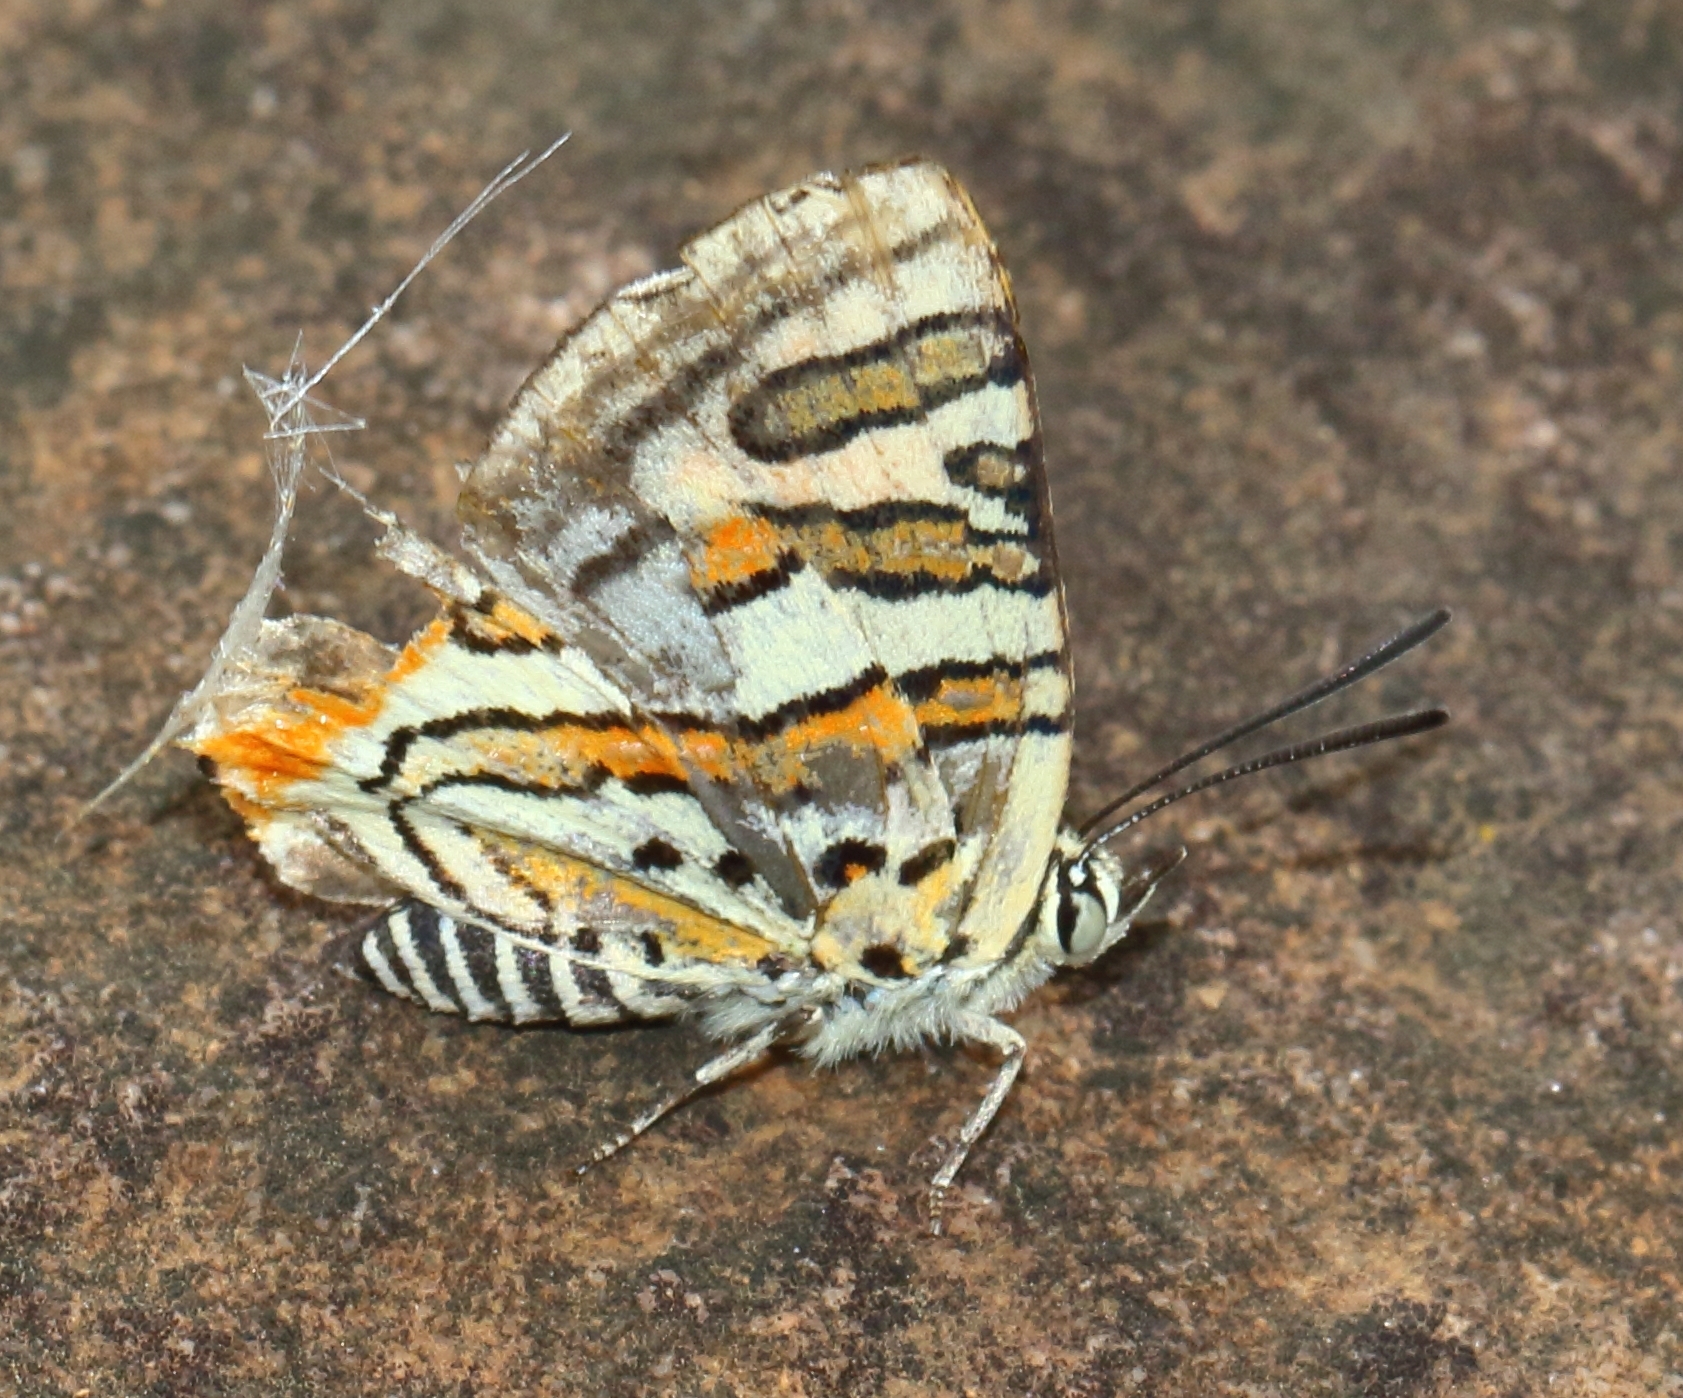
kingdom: Animalia
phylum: Arthropoda
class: Insecta
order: Lepidoptera
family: Lycaenidae
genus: Cigaritis
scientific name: Cigaritis mozambica
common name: Mozambique bar
